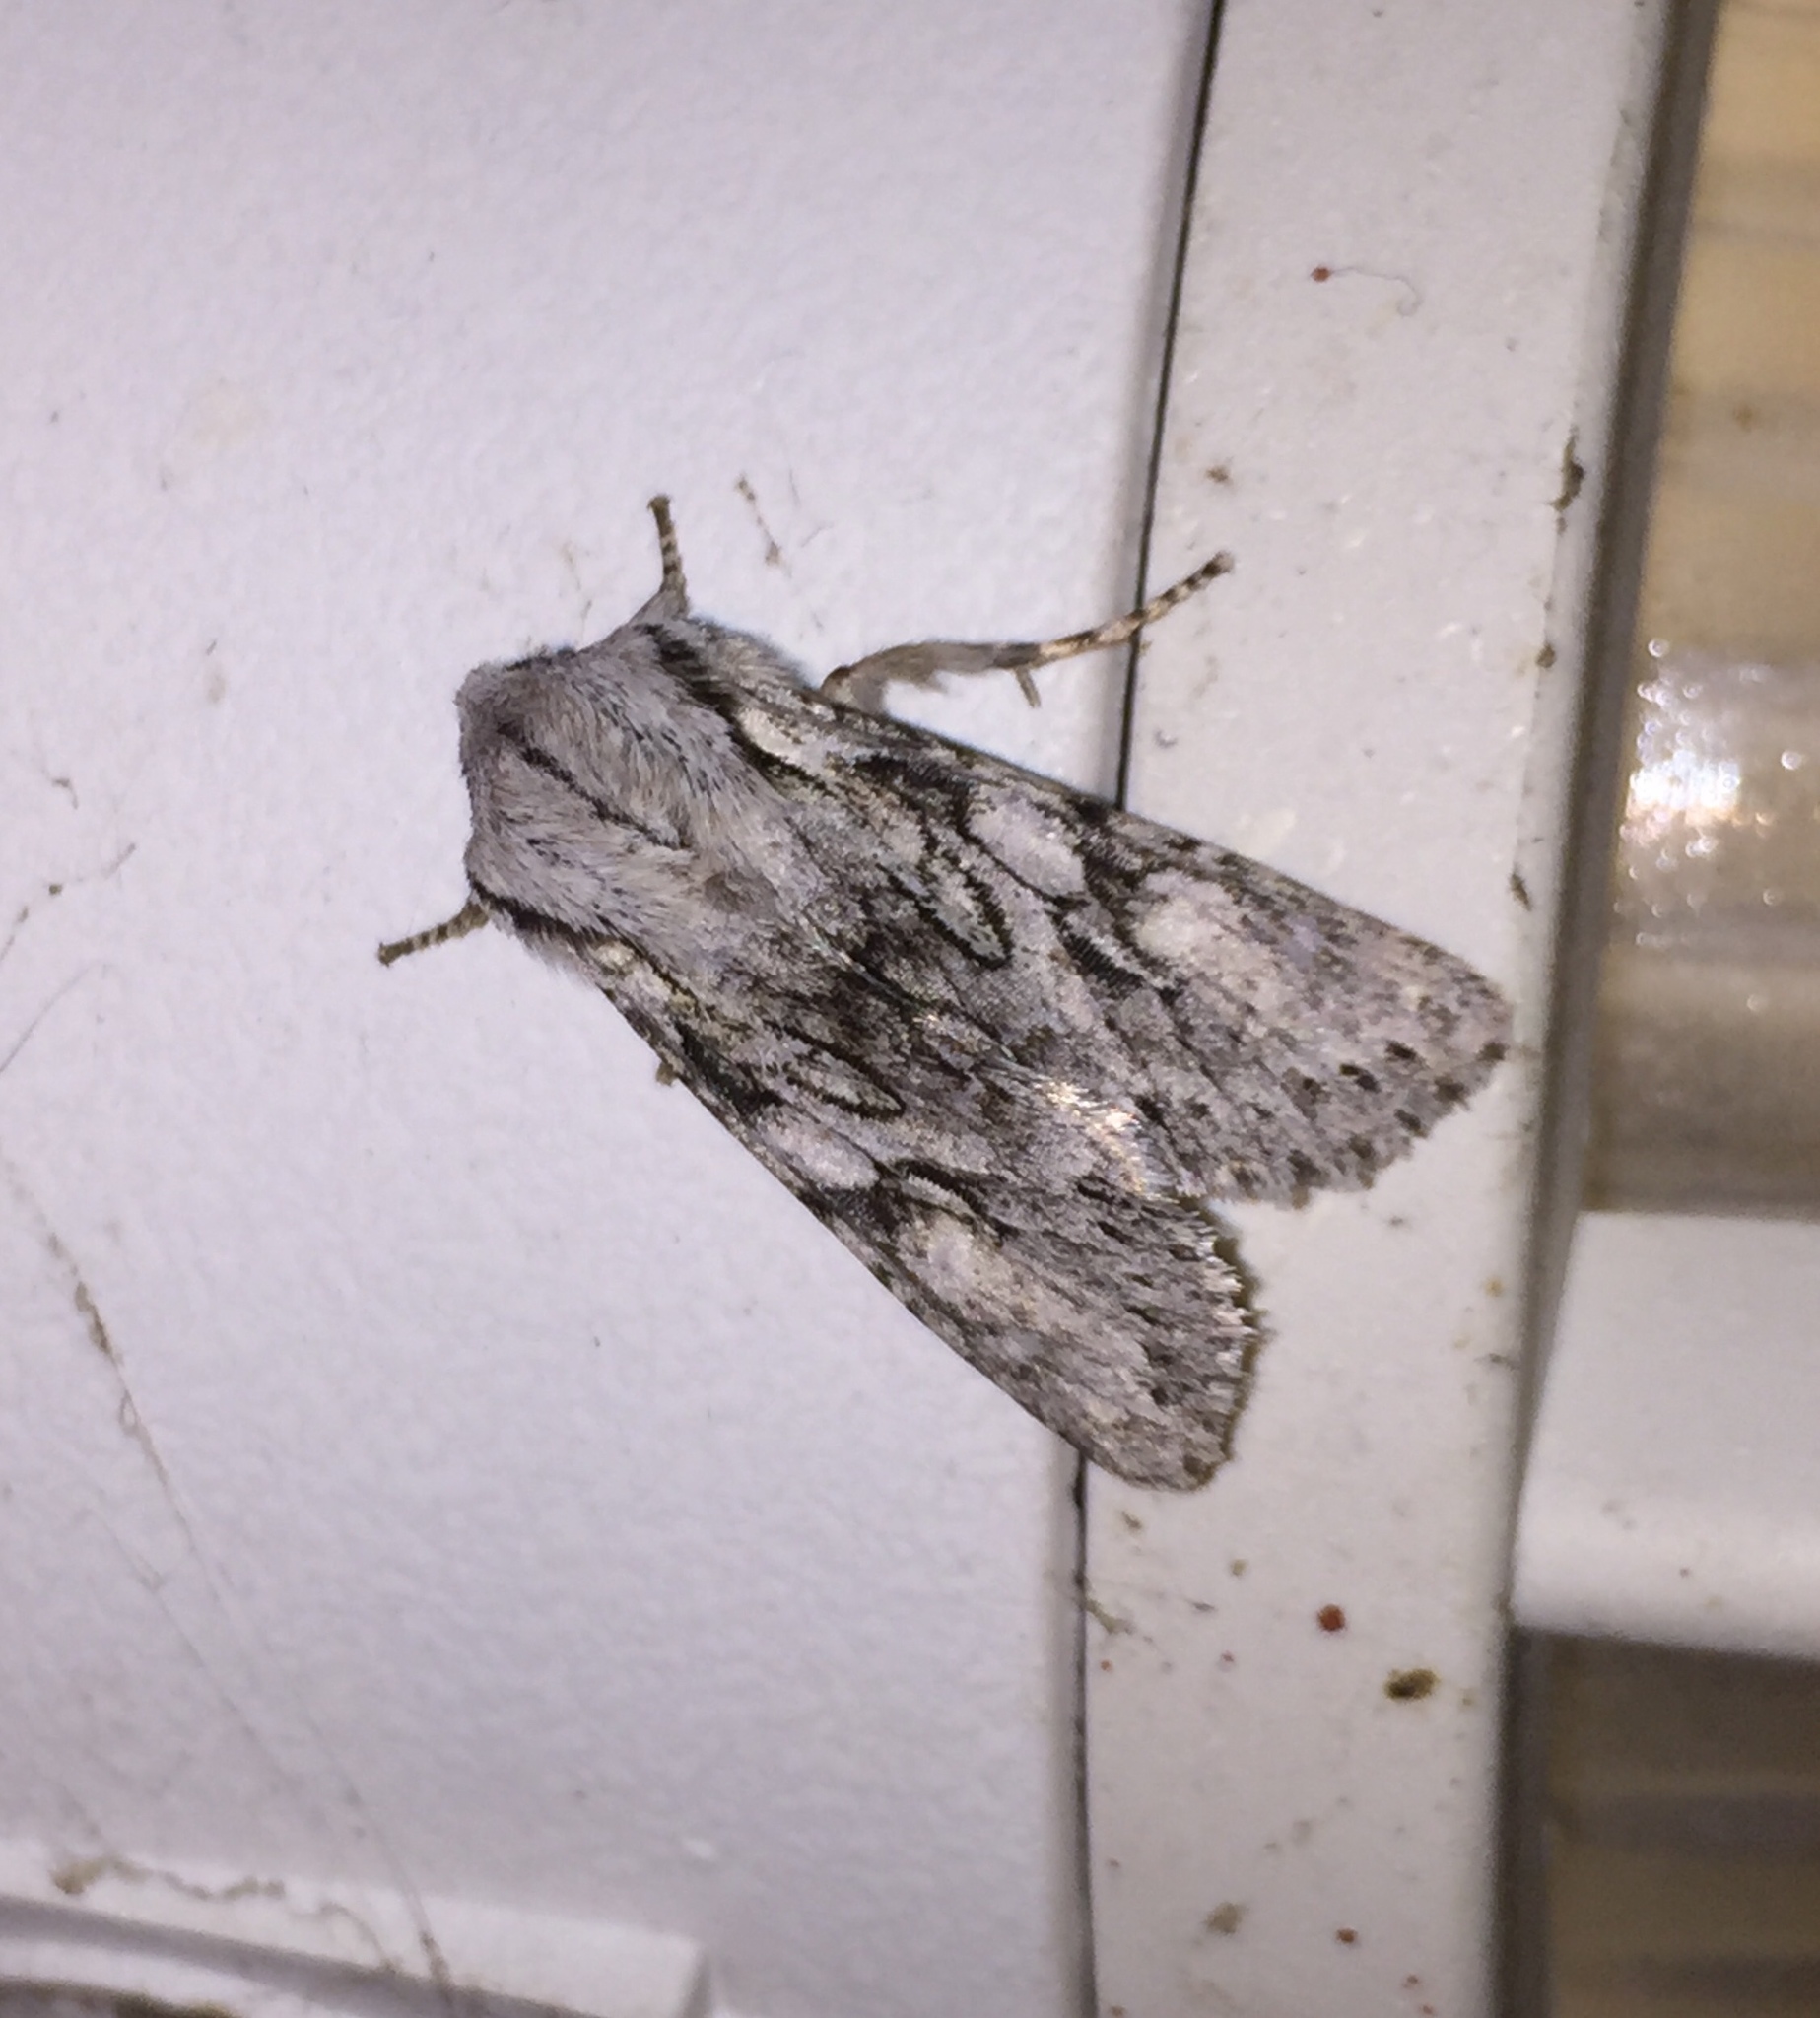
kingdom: Animalia
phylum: Arthropoda
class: Insecta
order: Lepidoptera
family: Noctuidae
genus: Egira
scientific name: Egira simplex
